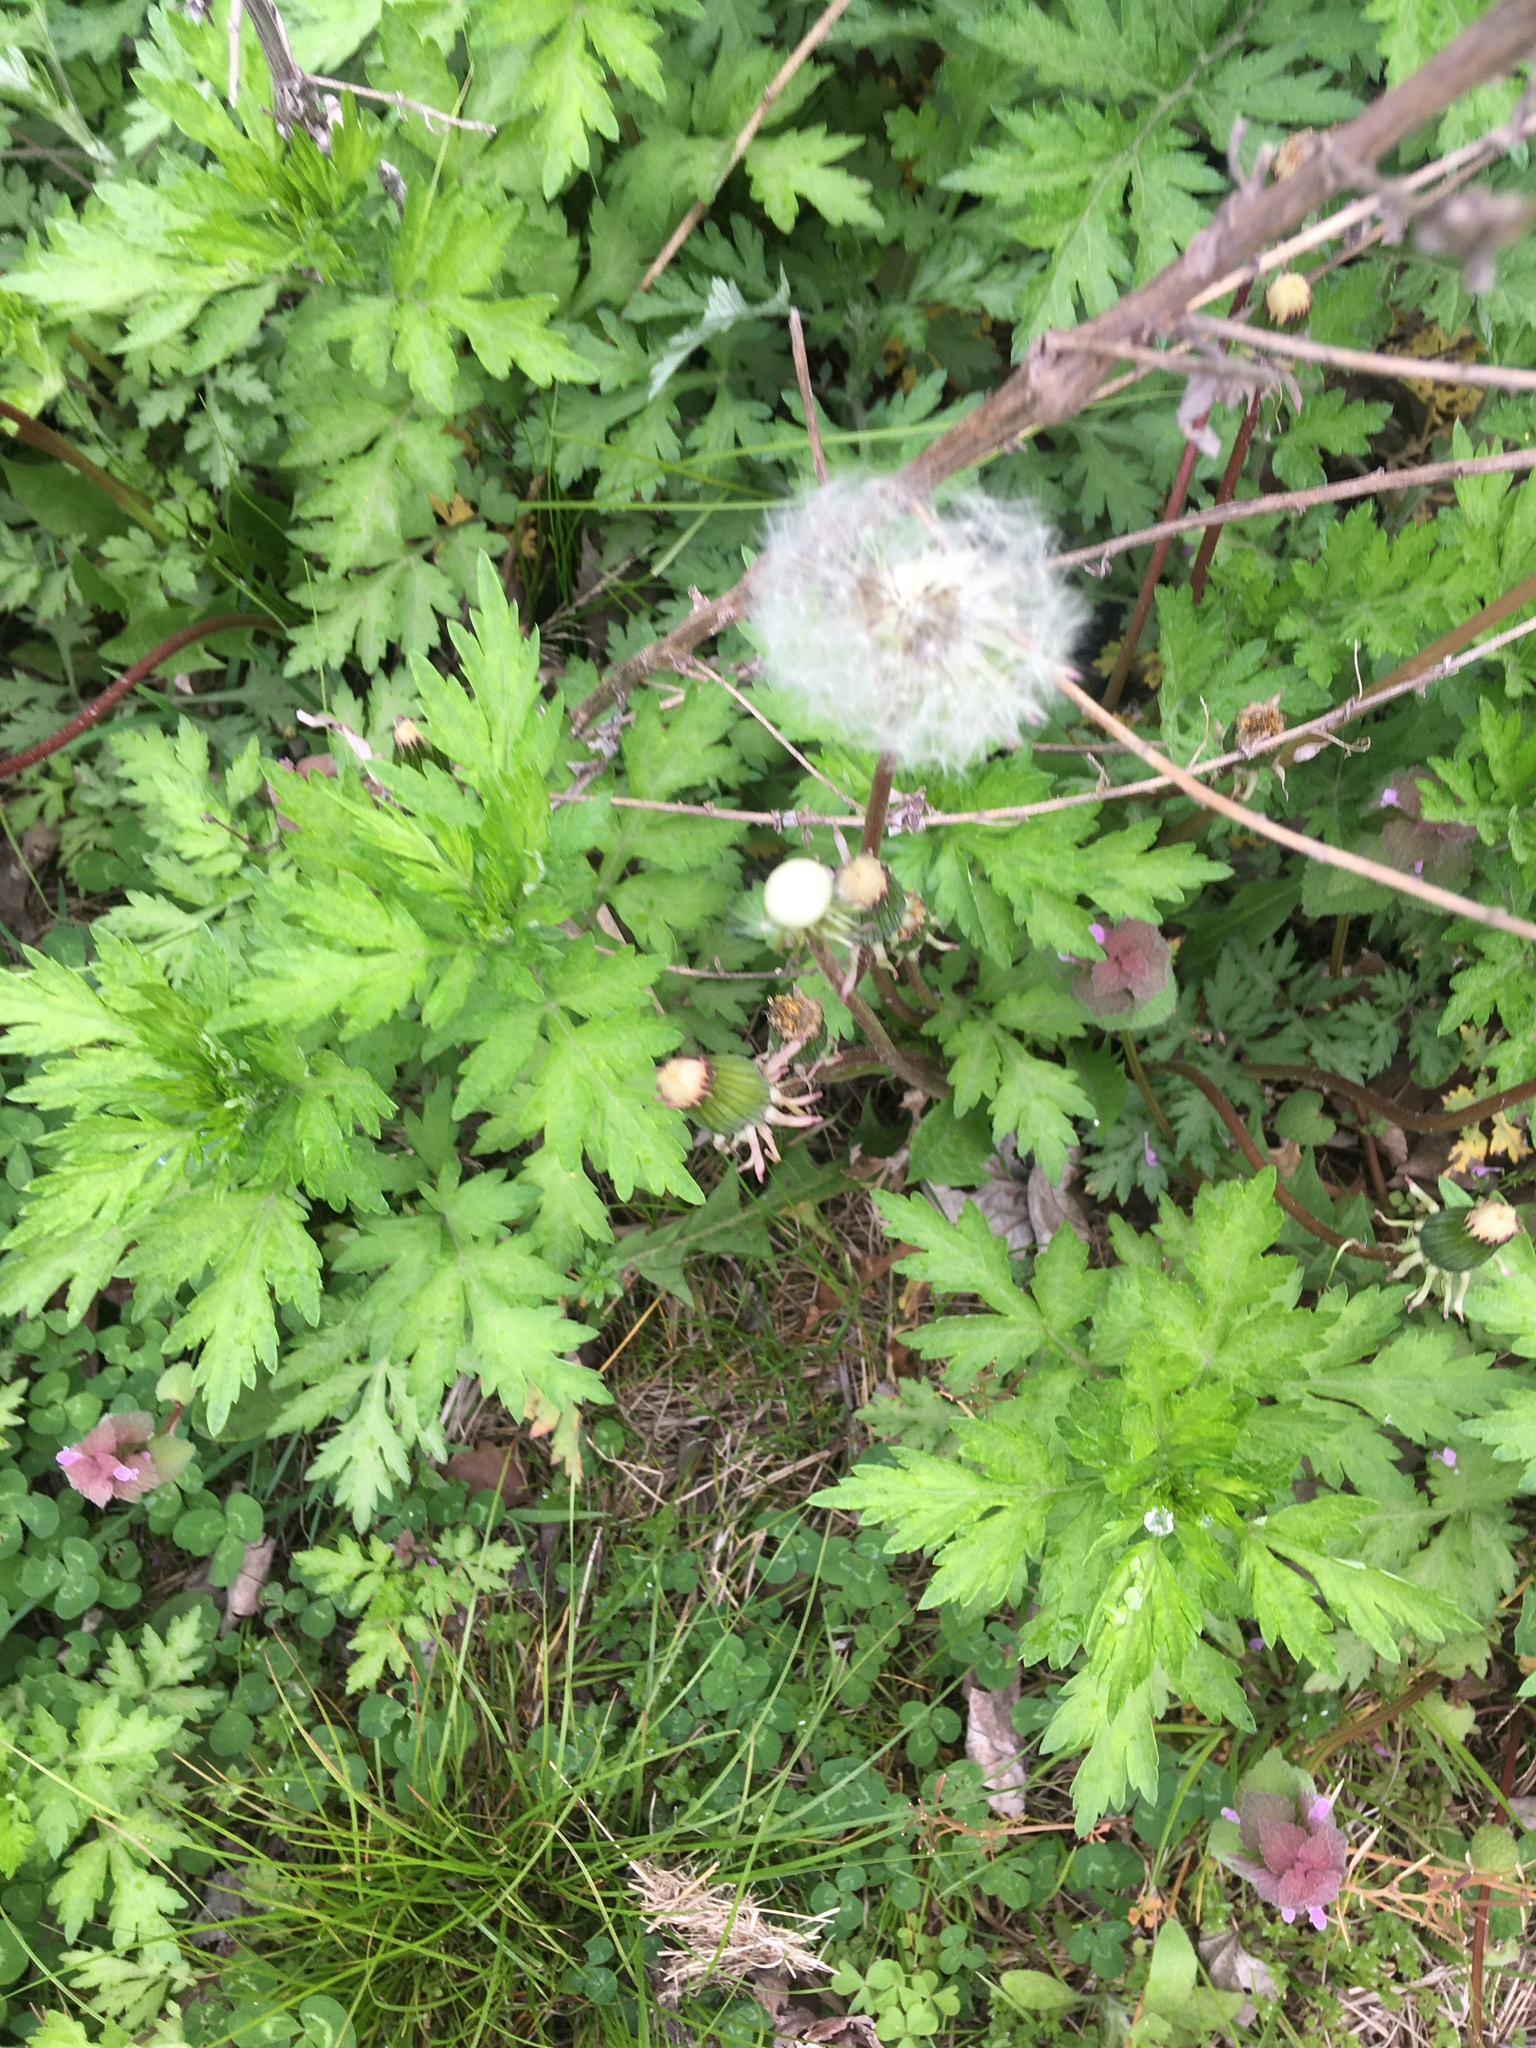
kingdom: Plantae
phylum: Tracheophyta
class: Magnoliopsida
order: Asterales
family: Asteraceae
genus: Taraxacum
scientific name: Taraxacum officinale
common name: Common dandelion
